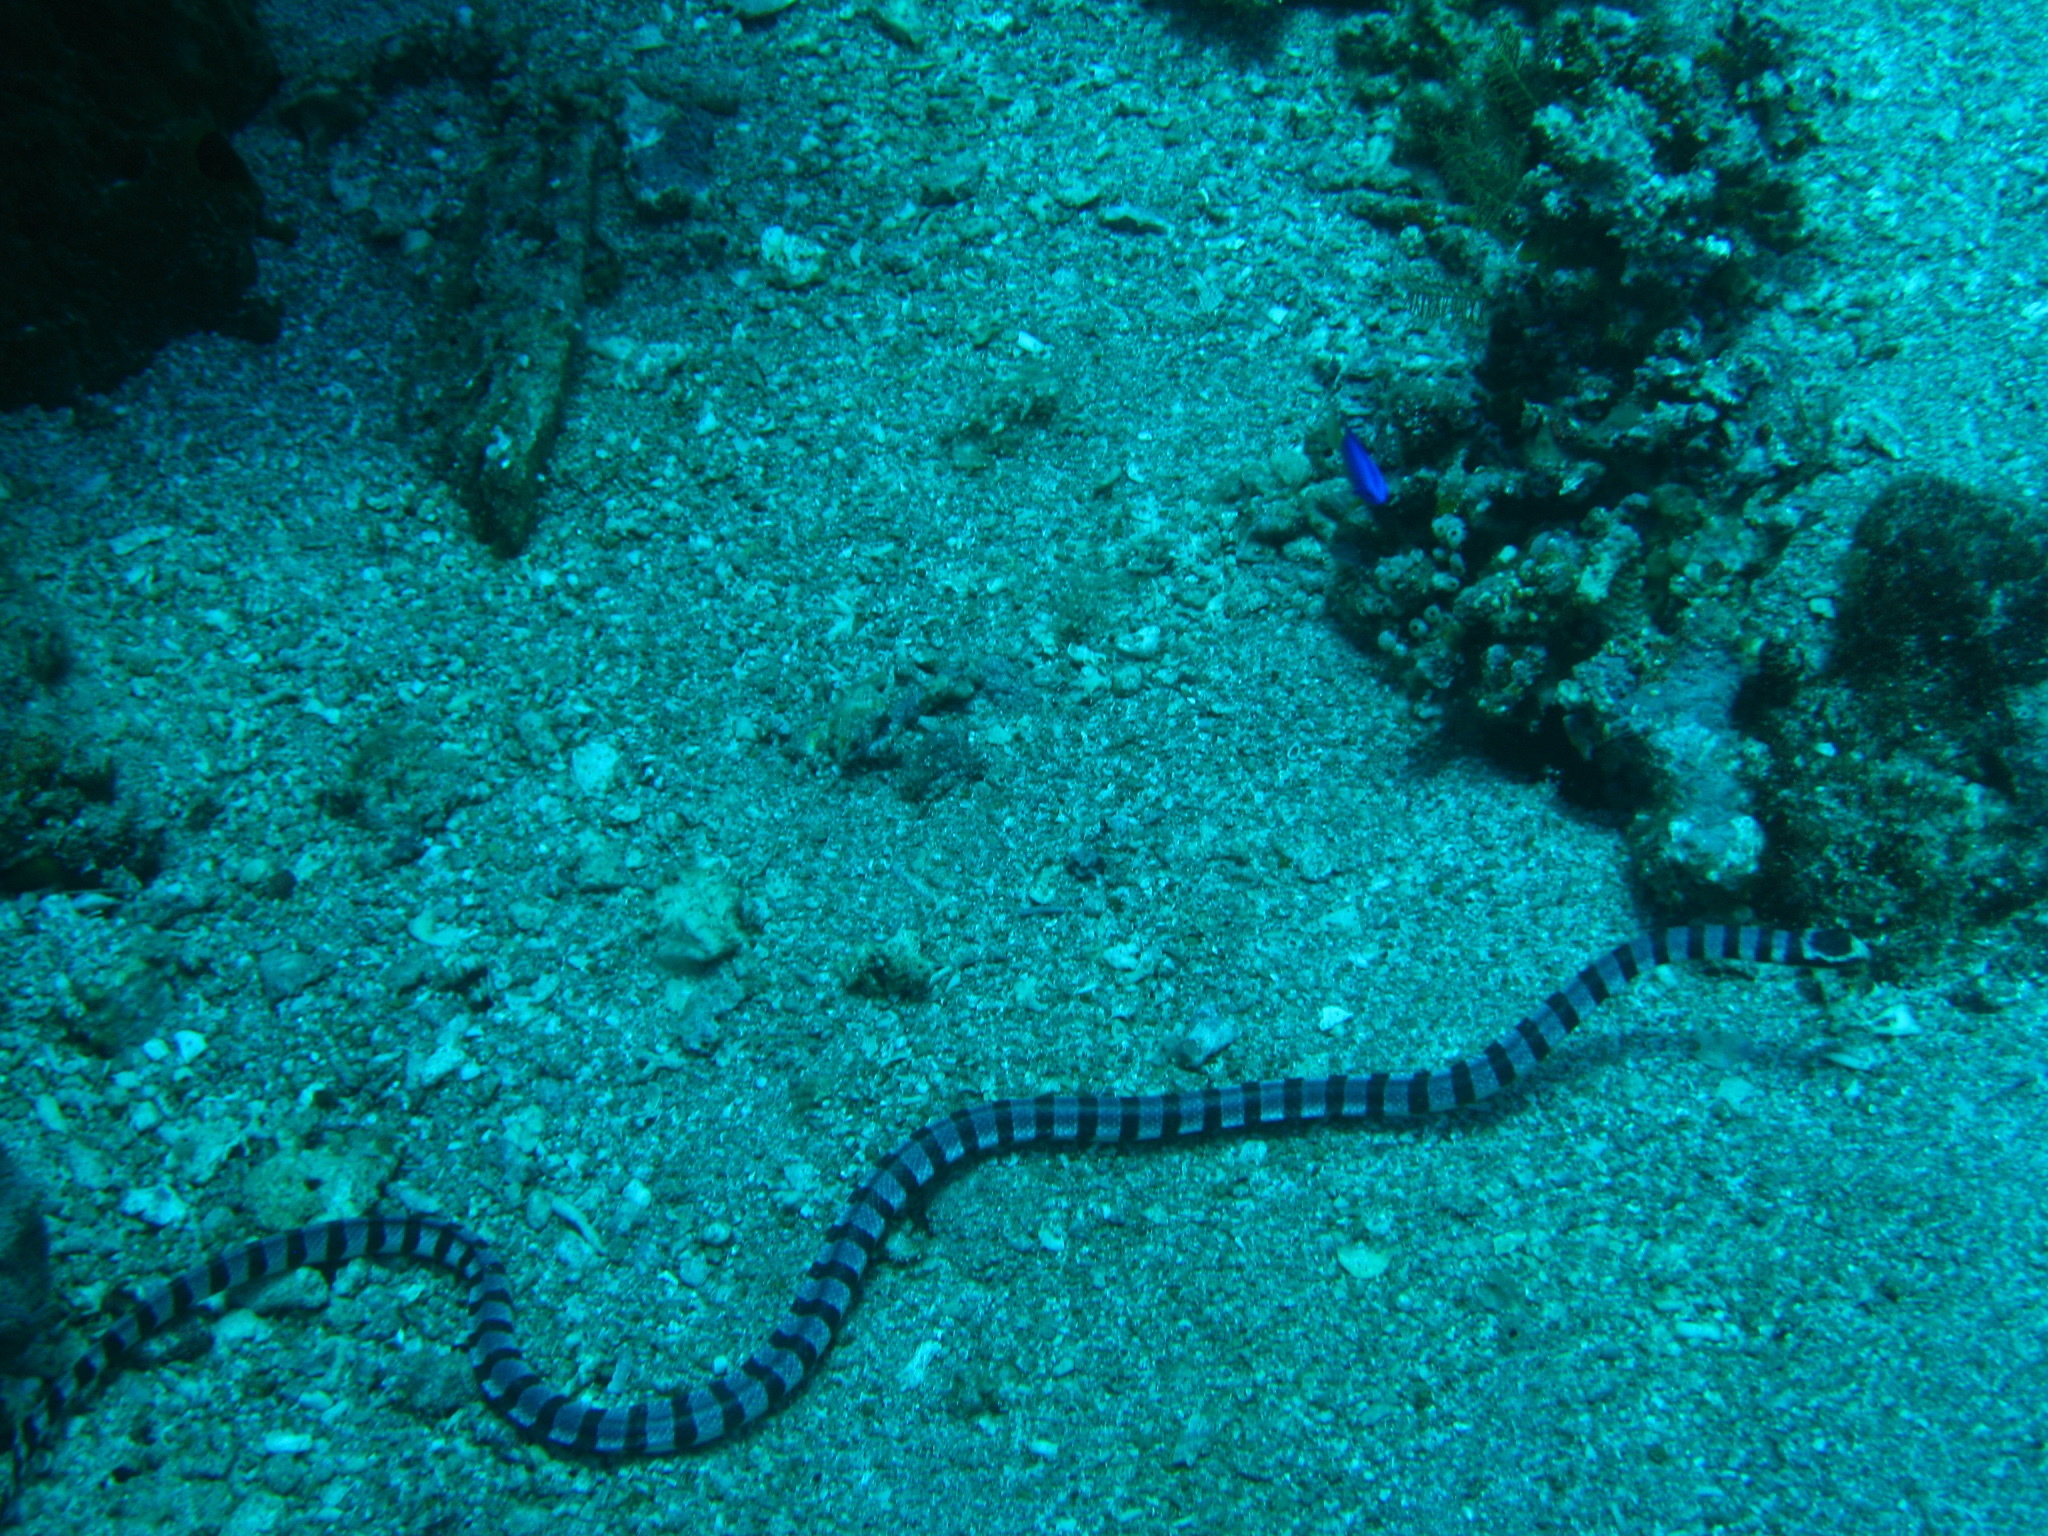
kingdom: Animalia
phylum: Chordata
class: Squamata
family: Elapidae
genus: Laticauda
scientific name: Laticauda colubrina
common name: Yellow-lipped sea krait
